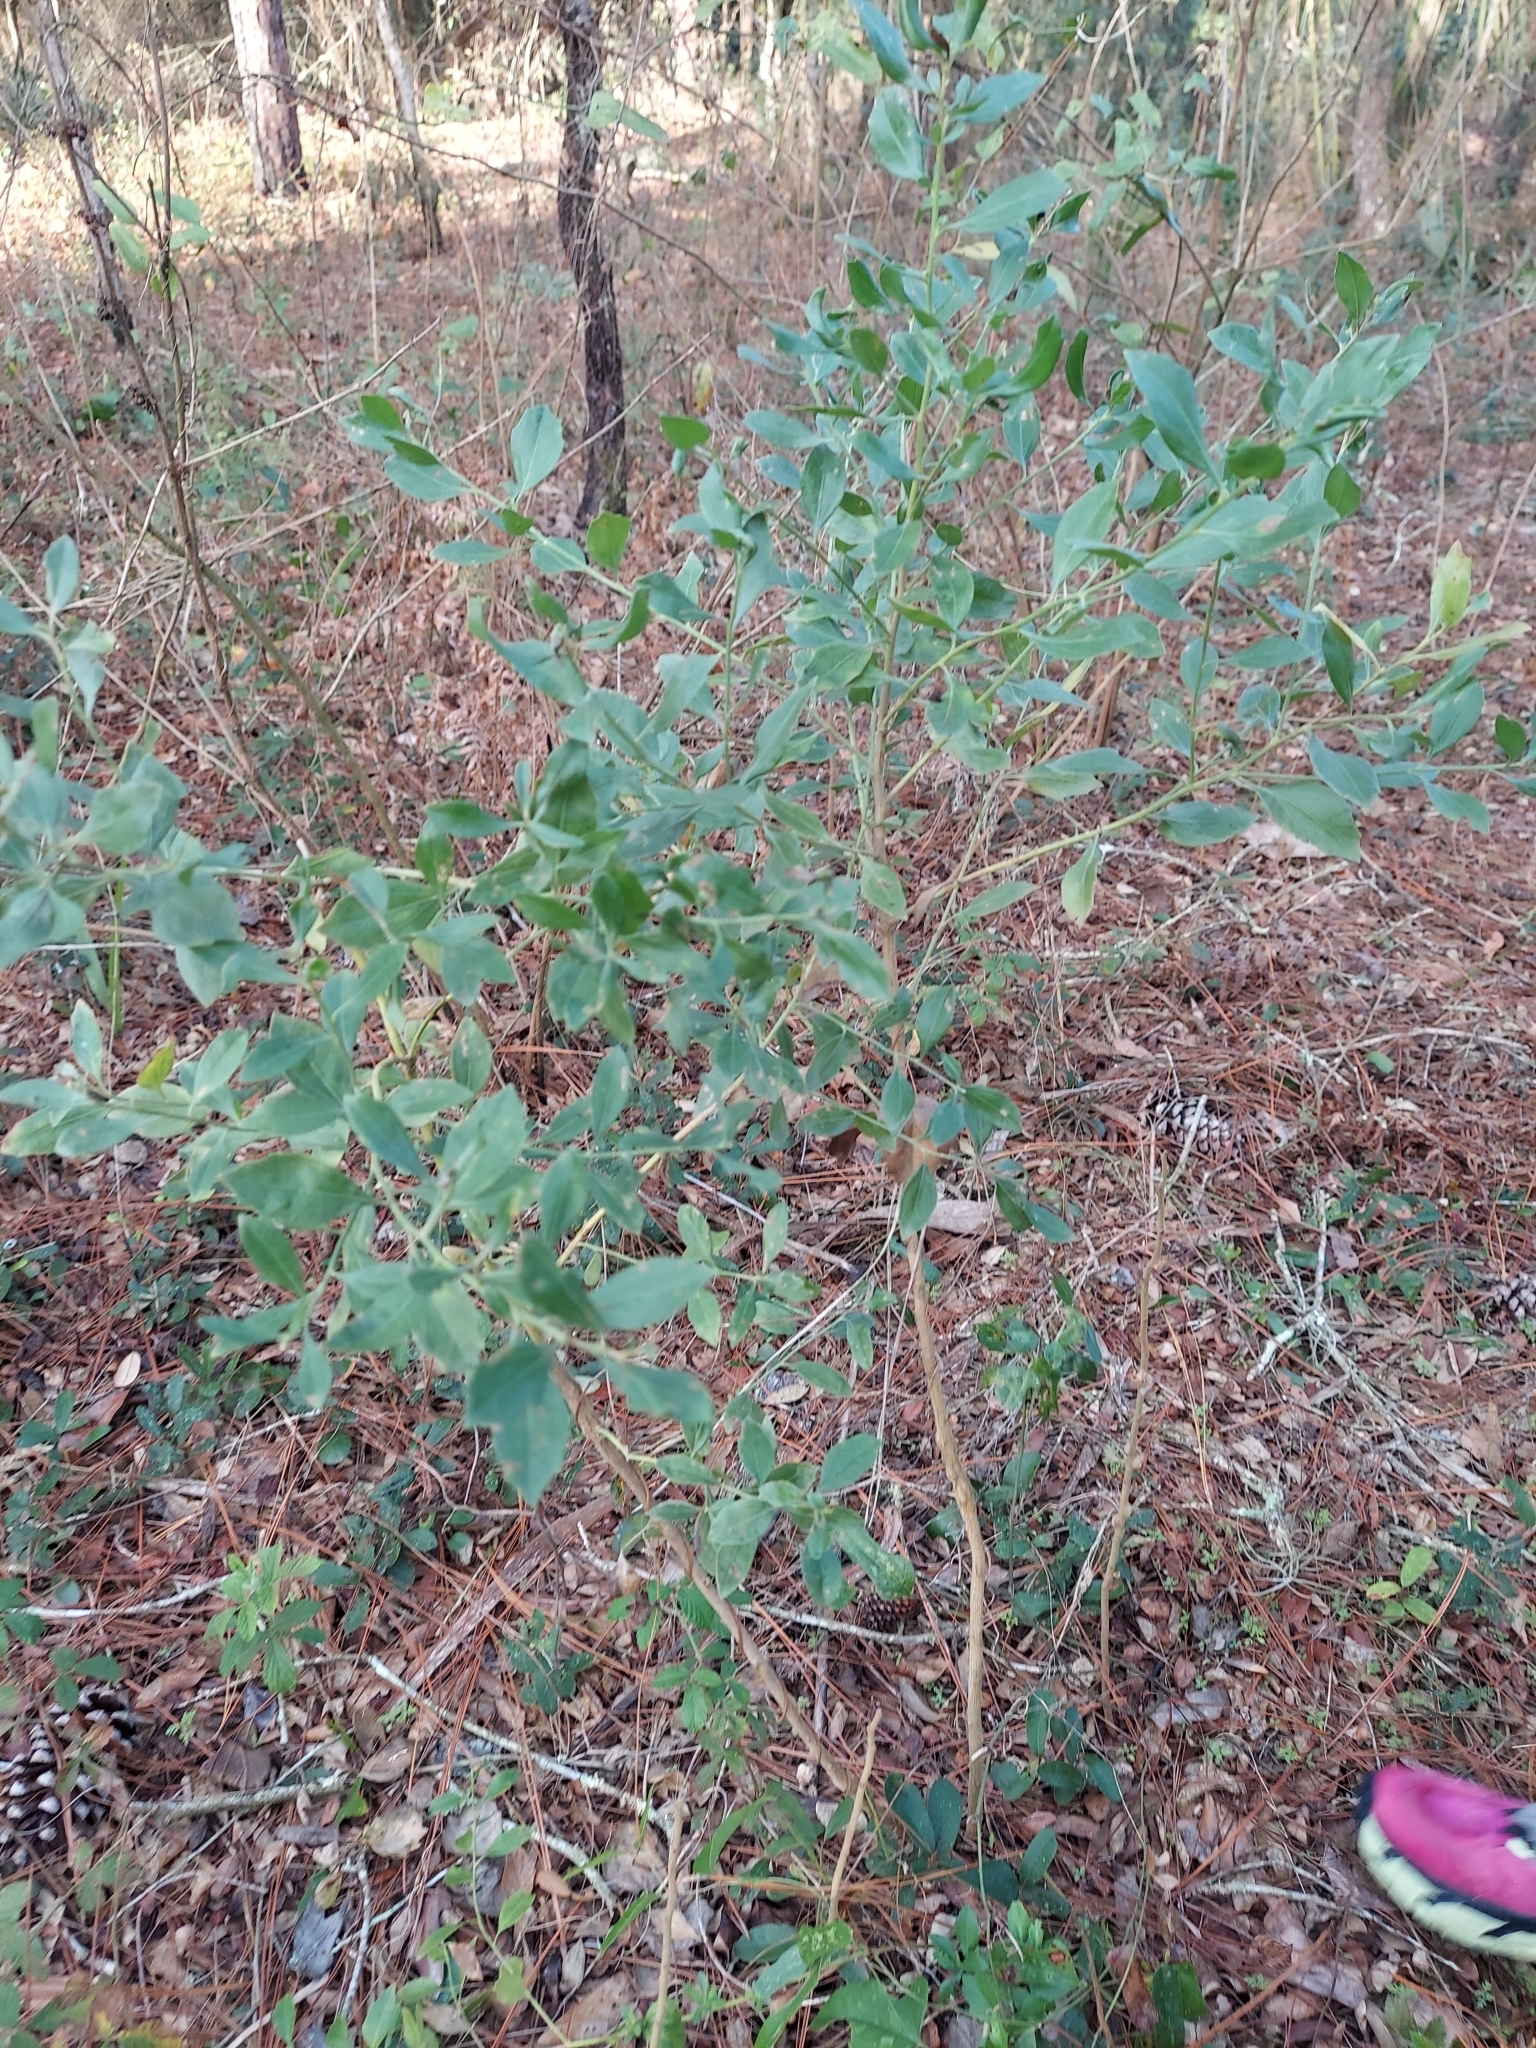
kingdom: Plantae
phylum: Tracheophyta
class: Magnoliopsida
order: Asterales
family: Asteraceae
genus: Baccharis
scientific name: Baccharis halimifolia
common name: Eastern baccharis
